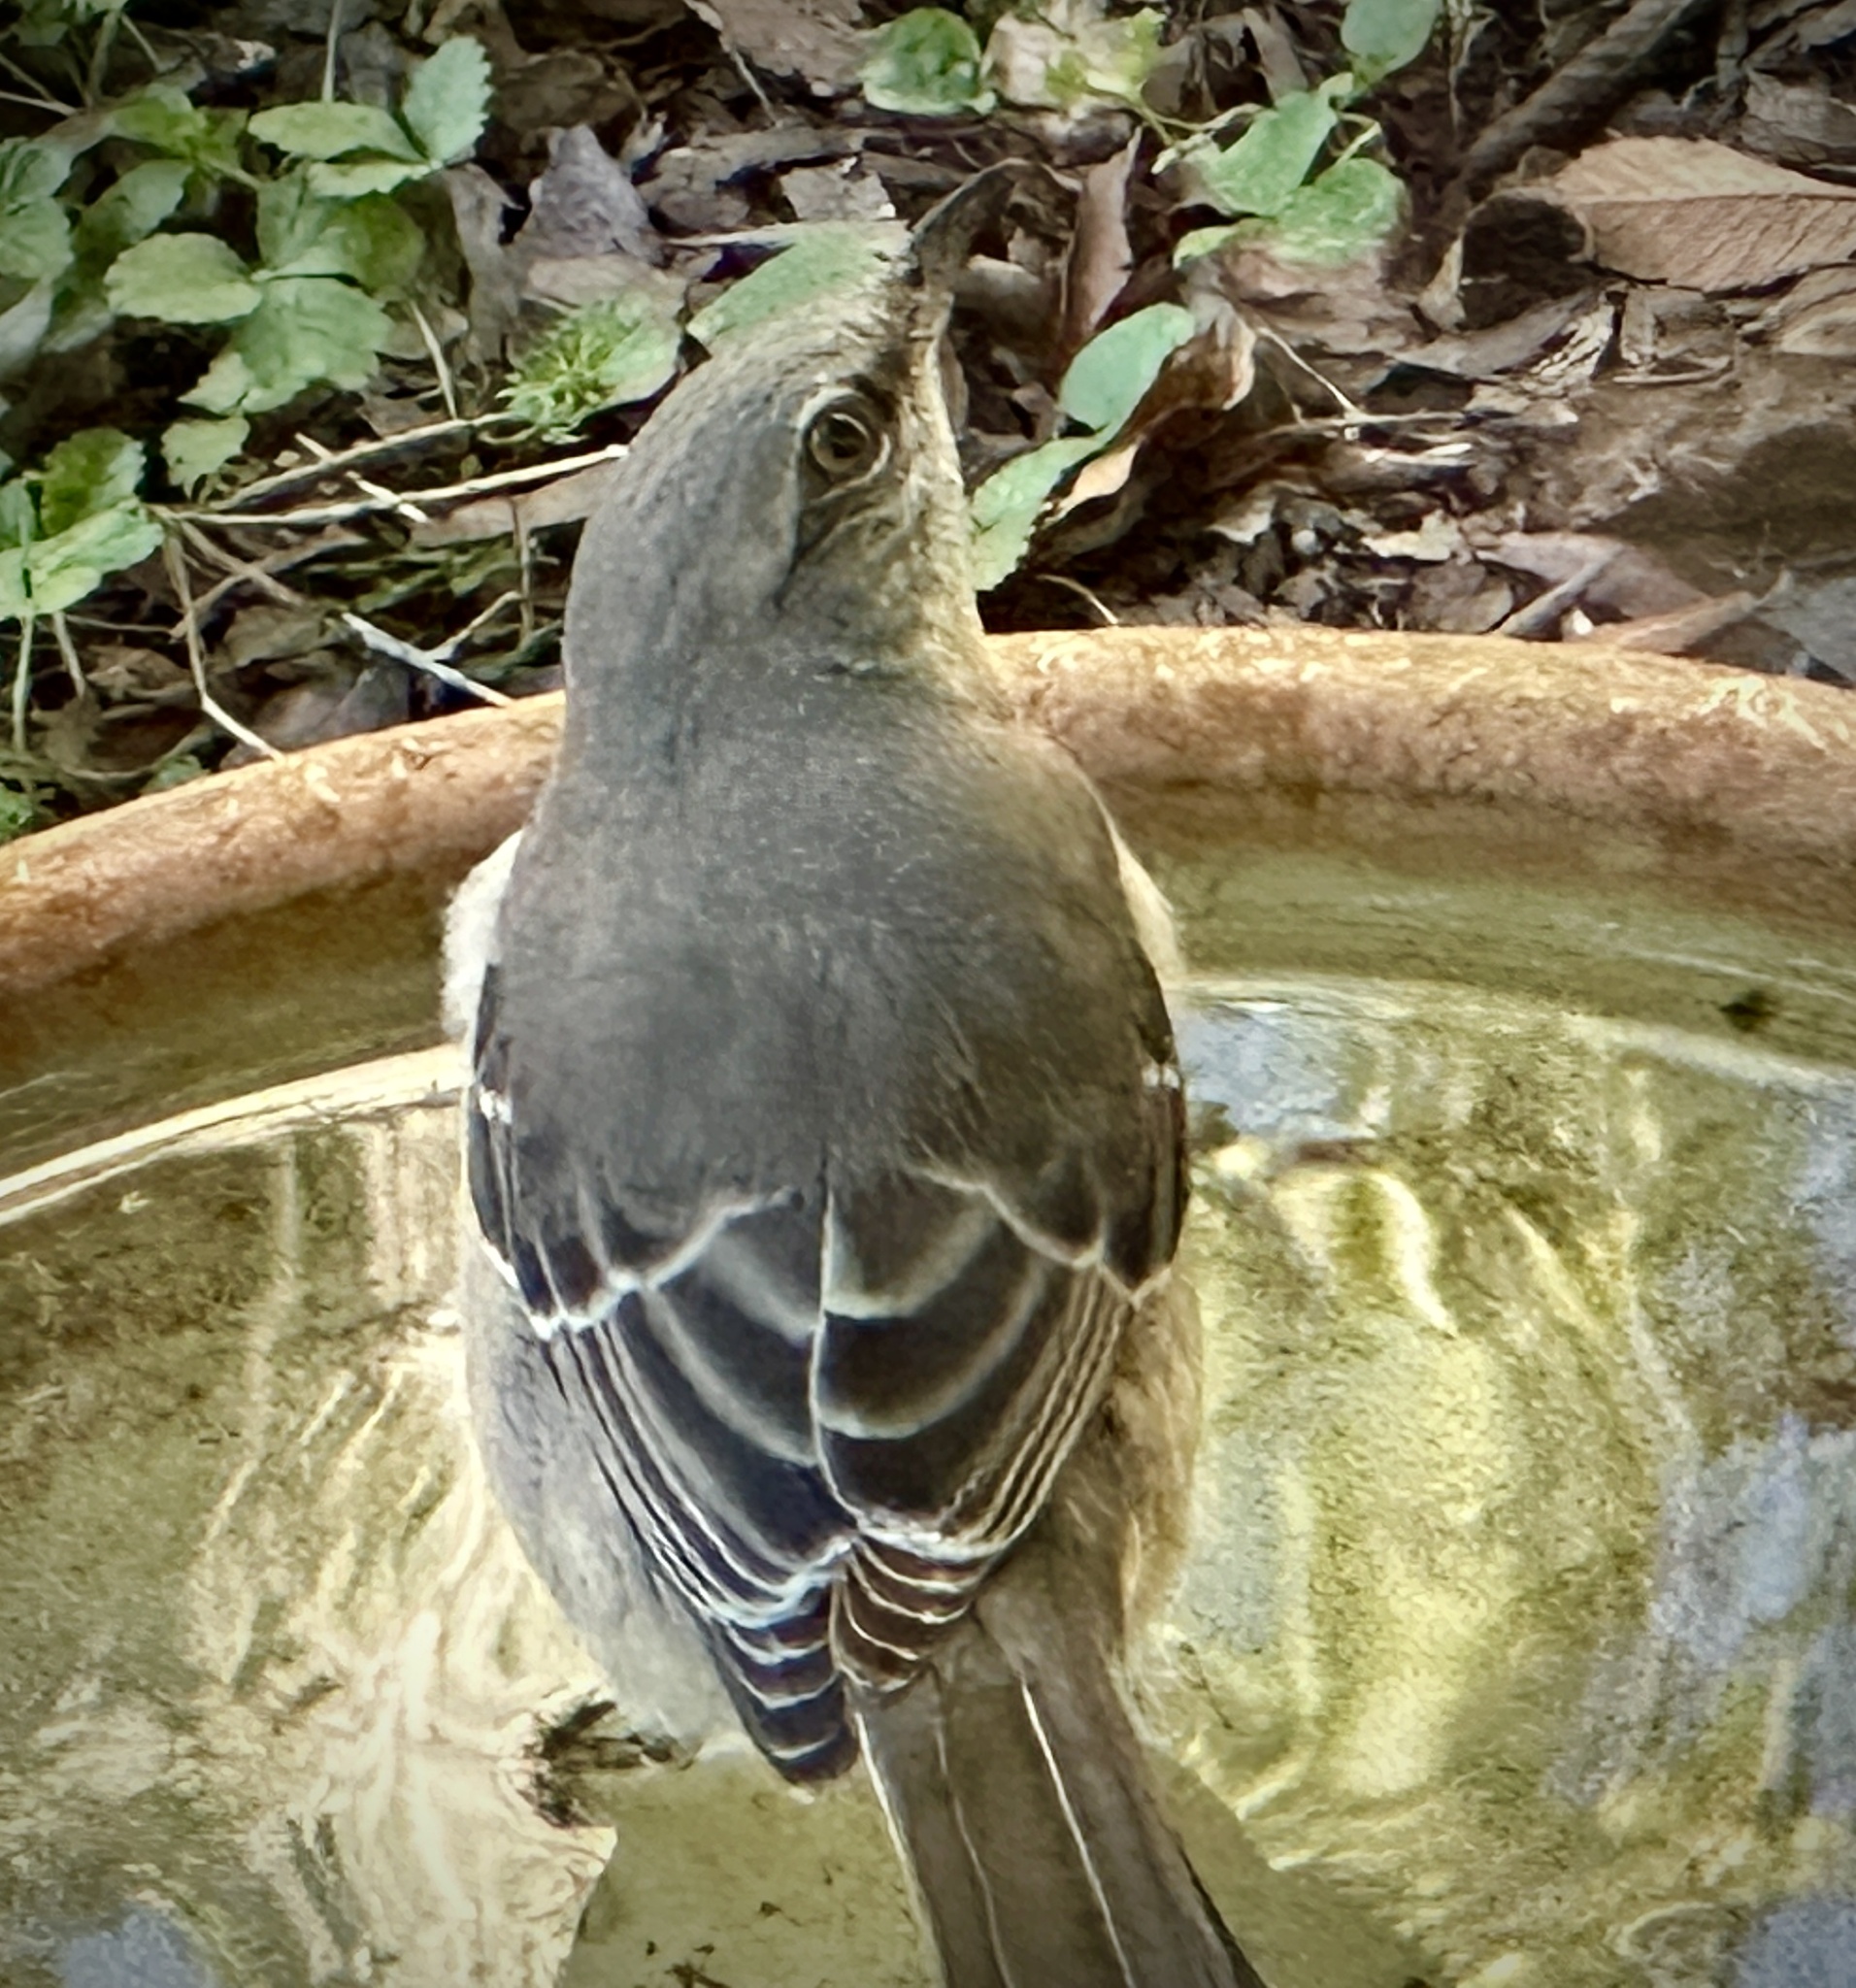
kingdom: Animalia
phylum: Chordata
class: Aves
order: Passeriformes
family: Mimidae
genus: Mimus
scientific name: Mimus polyglottos
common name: Northern mockingbird
